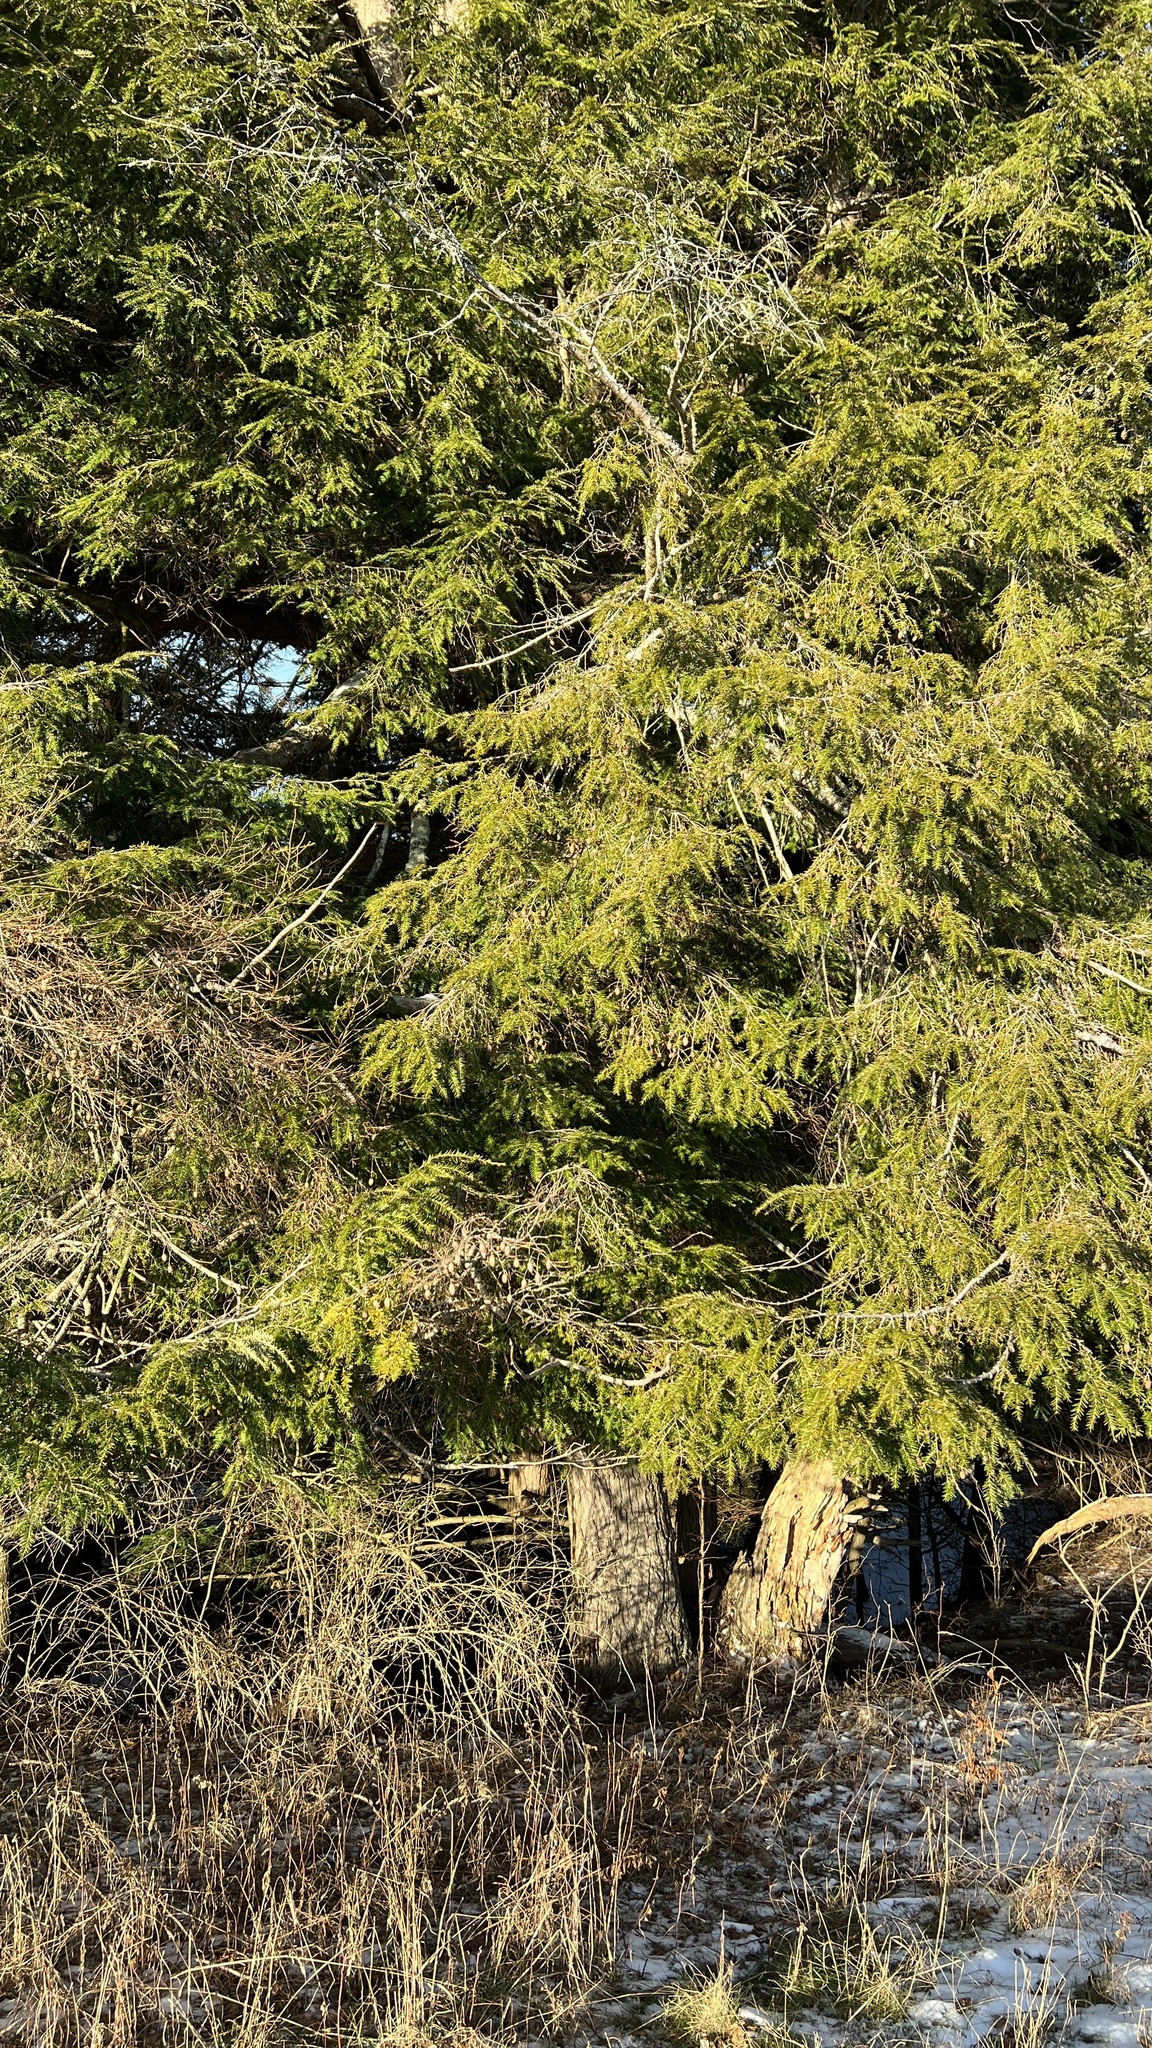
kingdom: Plantae
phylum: Tracheophyta
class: Pinopsida
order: Pinales
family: Pinaceae
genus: Tsuga
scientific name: Tsuga canadensis
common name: Eastern hemlock
